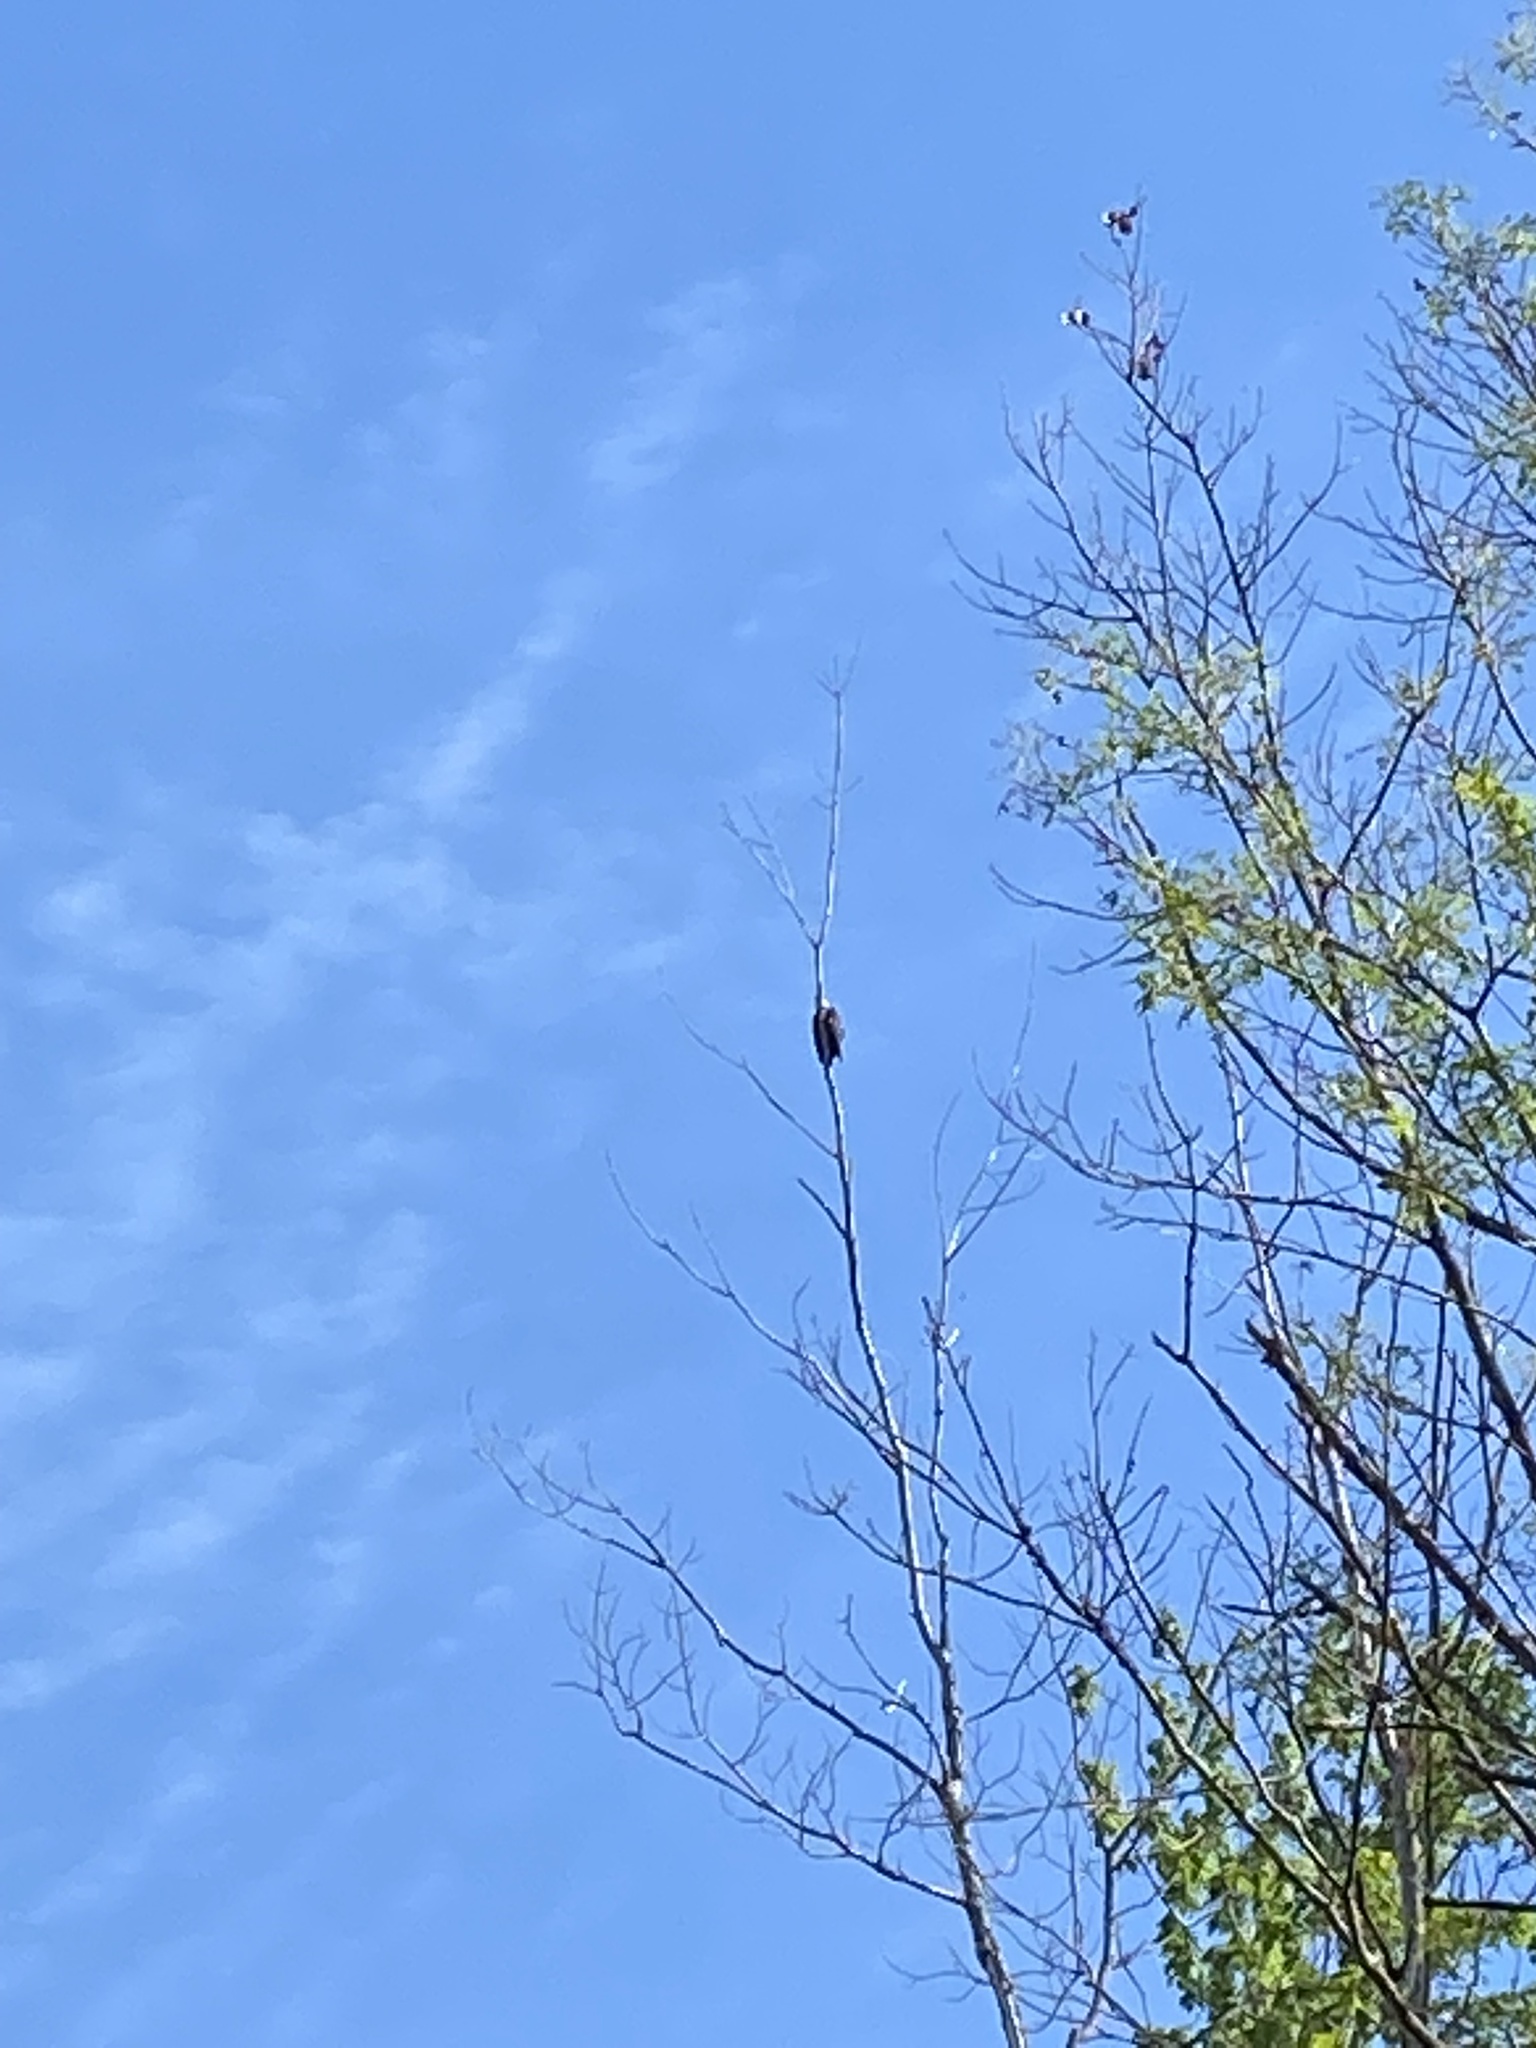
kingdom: Animalia
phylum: Chordata
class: Aves
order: Piciformes
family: Picidae
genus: Dryocopus
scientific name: Dryocopus pileatus
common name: Pileated woodpecker
